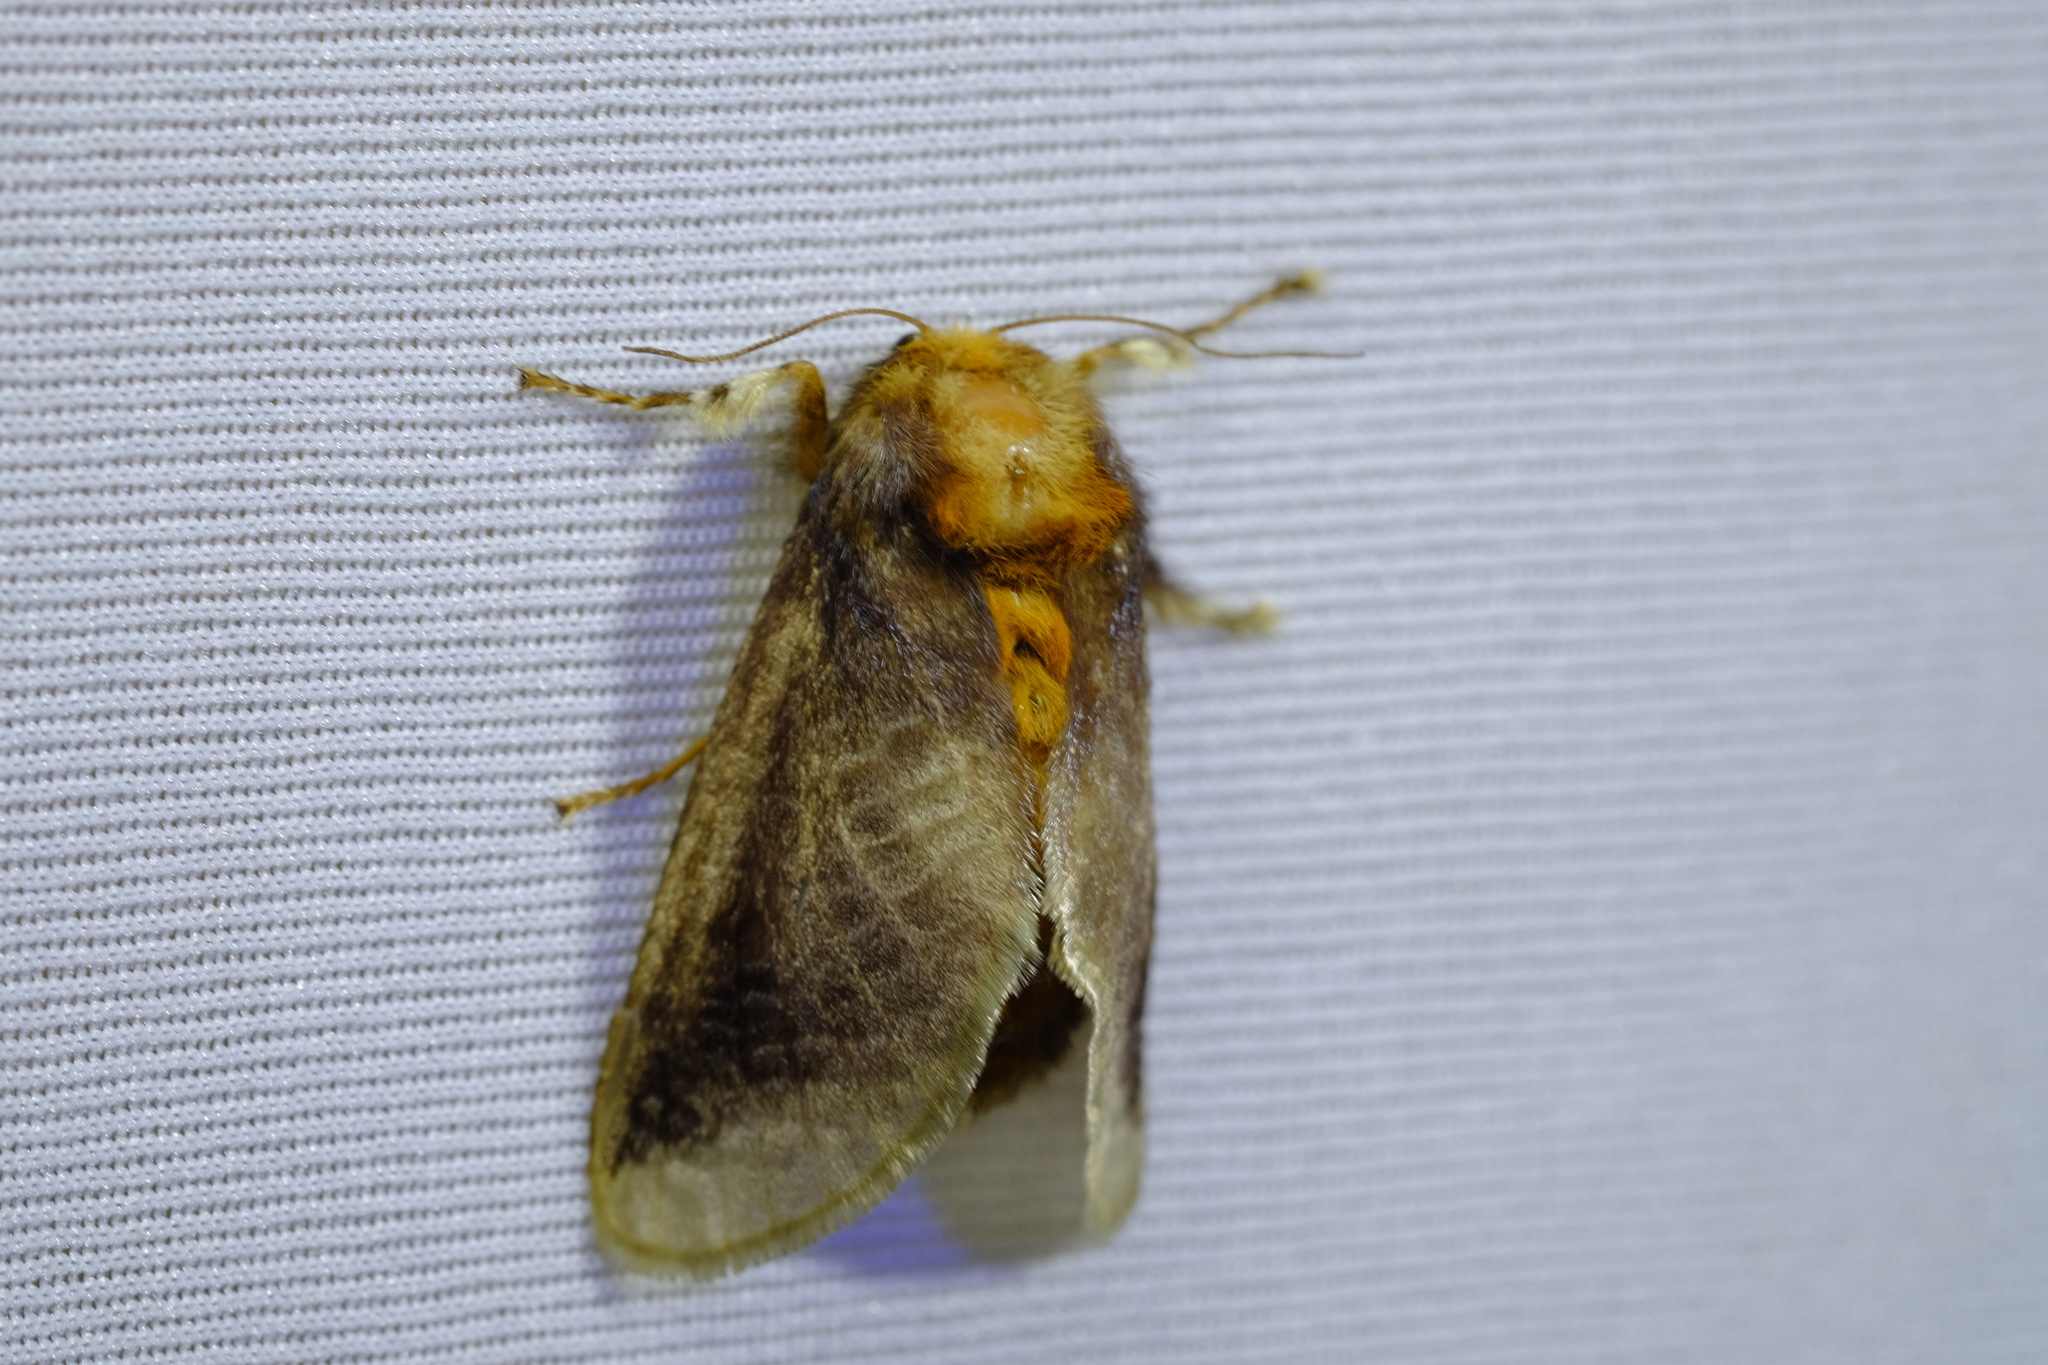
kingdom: Animalia
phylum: Arthropoda
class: Insecta
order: Lepidoptera
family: Limacodidae
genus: Doratifera
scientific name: Doratifera oxleyi
